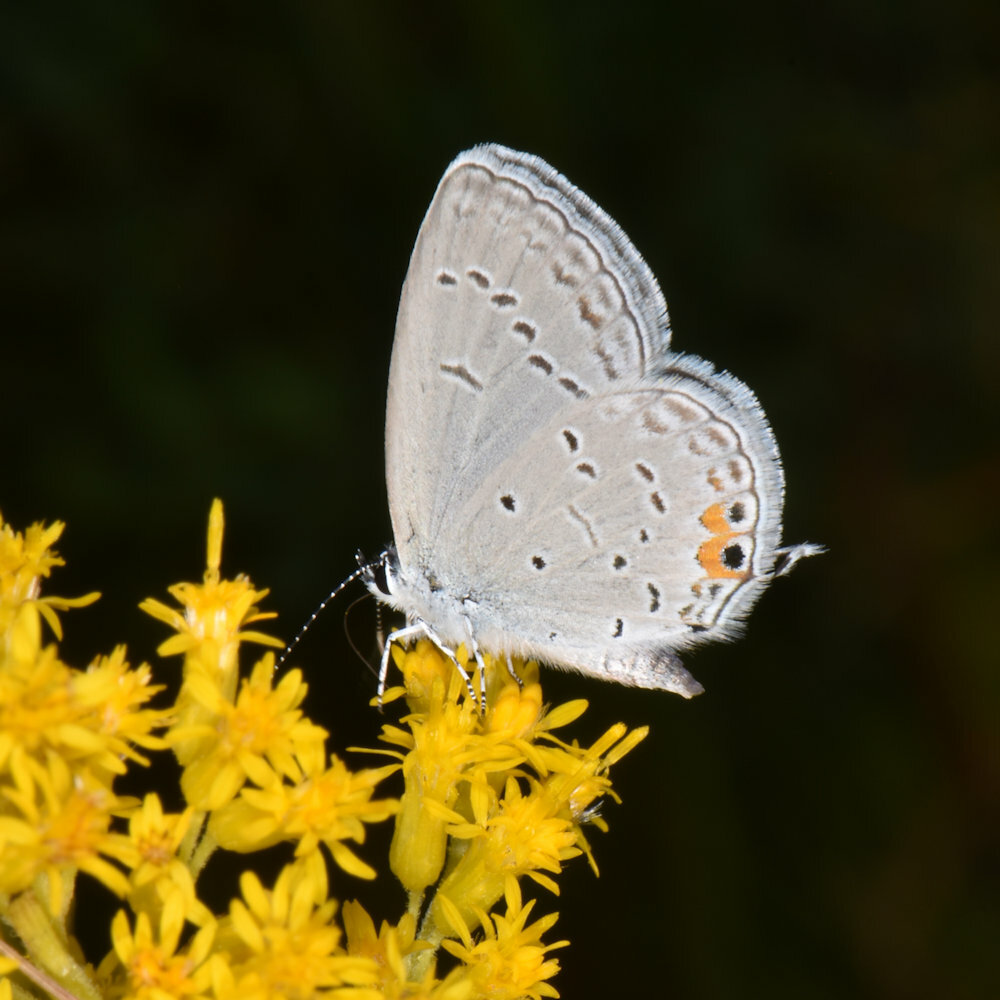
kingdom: Animalia
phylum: Arthropoda
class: Insecta
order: Lepidoptera
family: Lycaenidae
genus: Elkalyce
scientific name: Elkalyce comyntas
